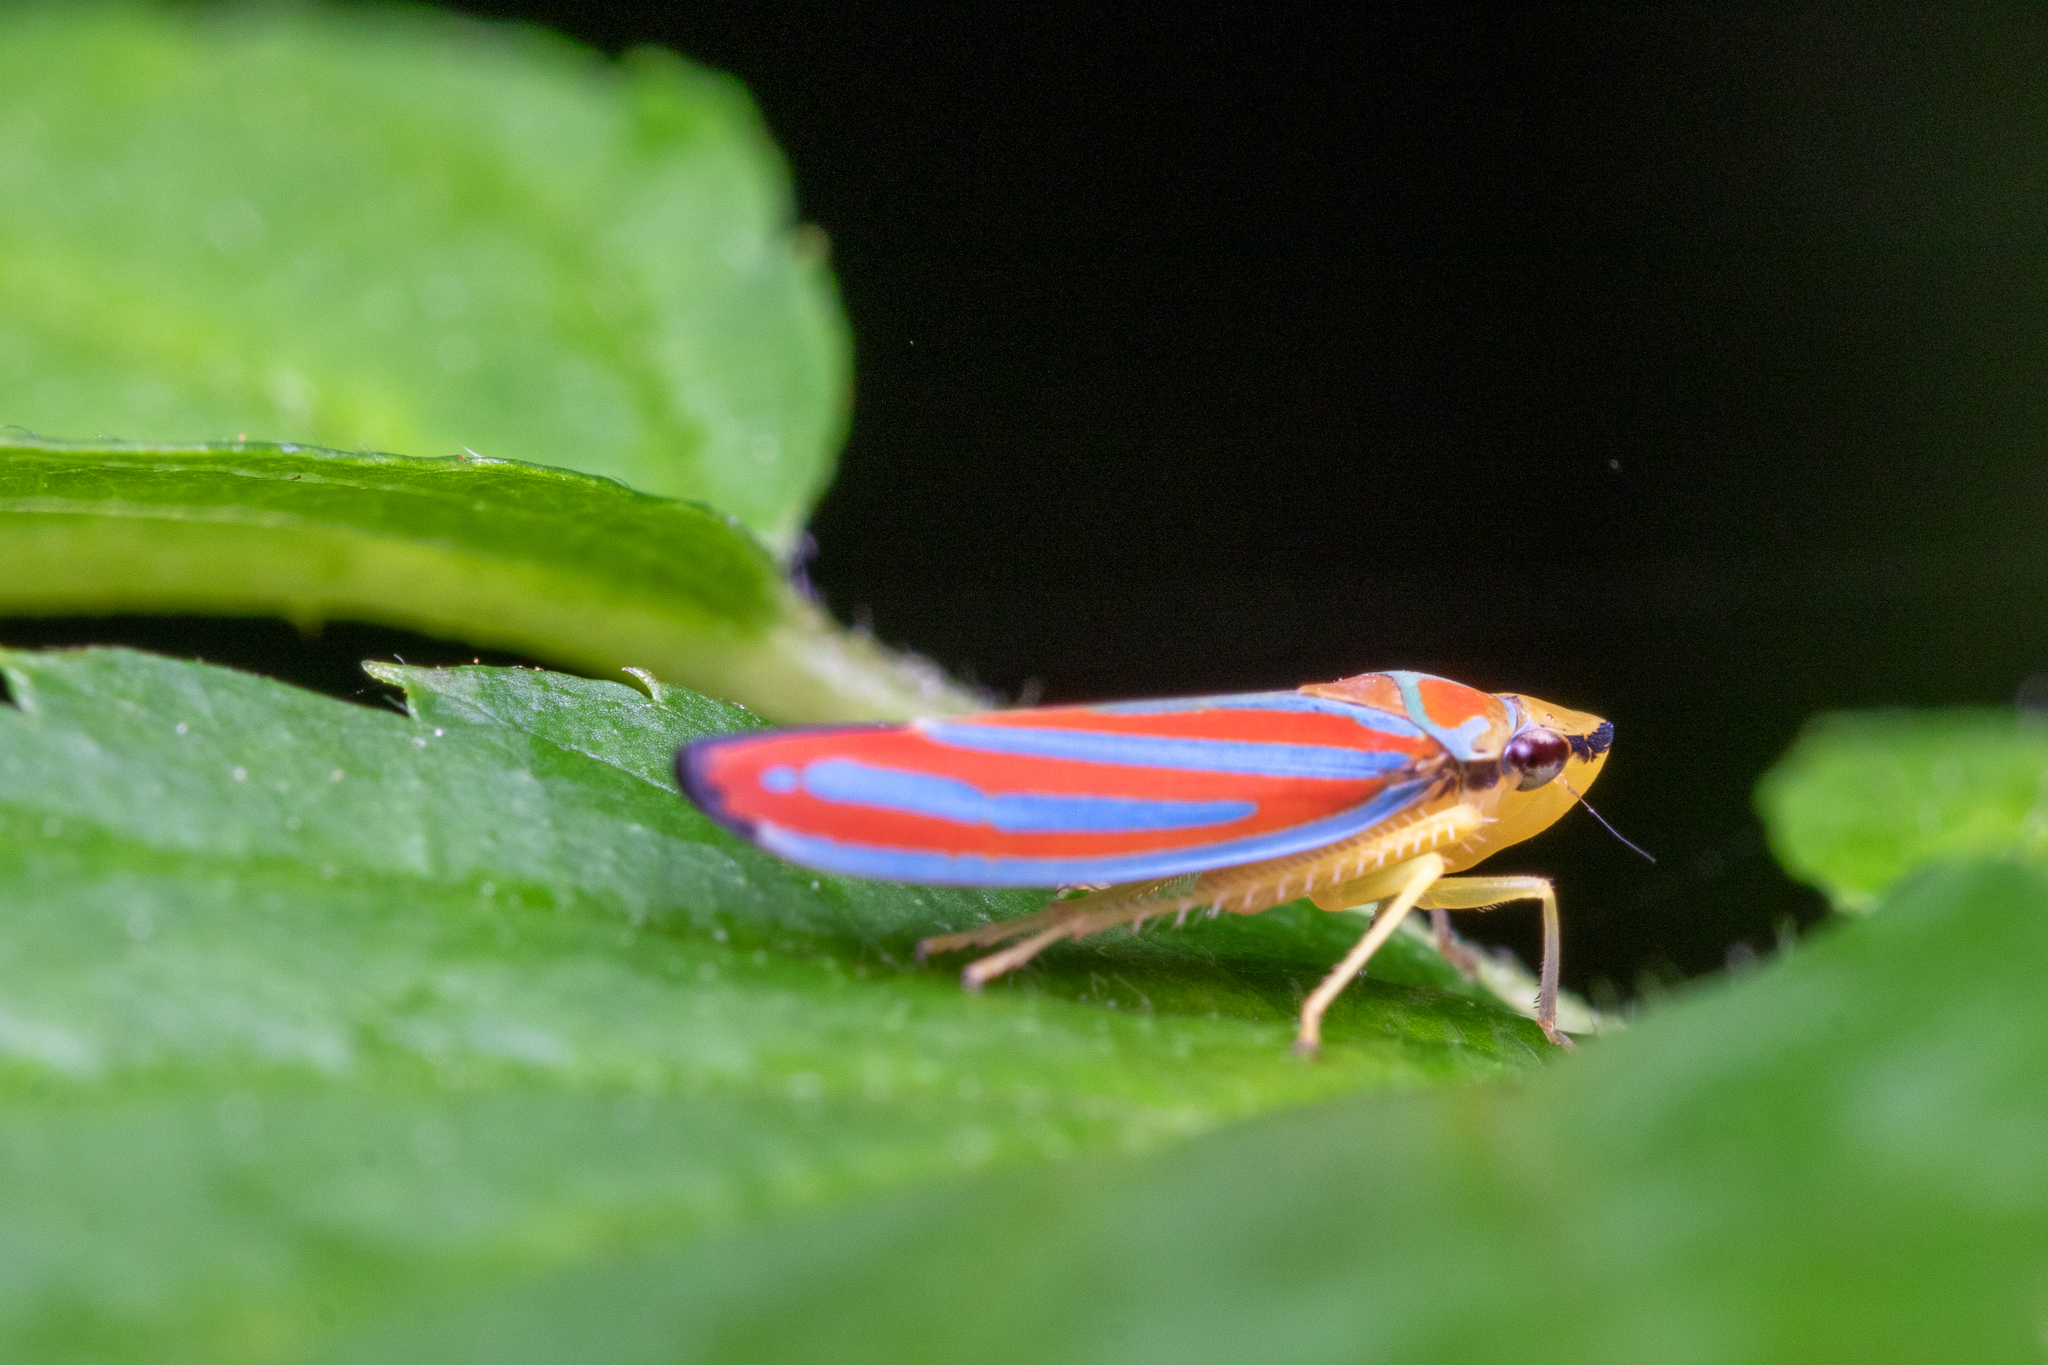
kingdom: Animalia
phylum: Arthropoda
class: Insecta
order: Hemiptera
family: Cicadellidae
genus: Graphocephala
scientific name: Graphocephala coccinea
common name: Candy-striped leafhopper
